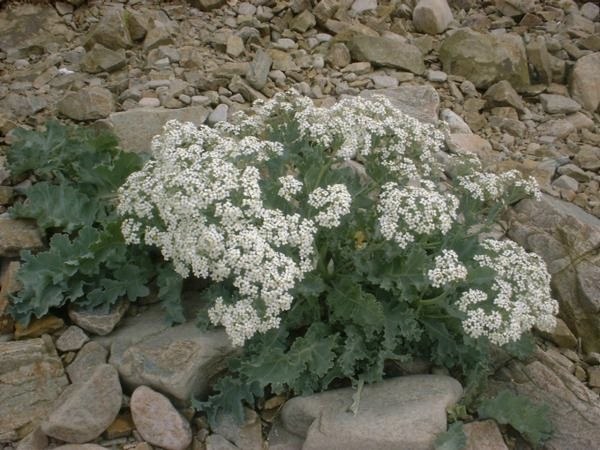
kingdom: Plantae
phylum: Tracheophyta
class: Magnoliopsida
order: Brassicales
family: Brassicaceae
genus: Crambe
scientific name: Crambe maritima
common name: Sea-kale
